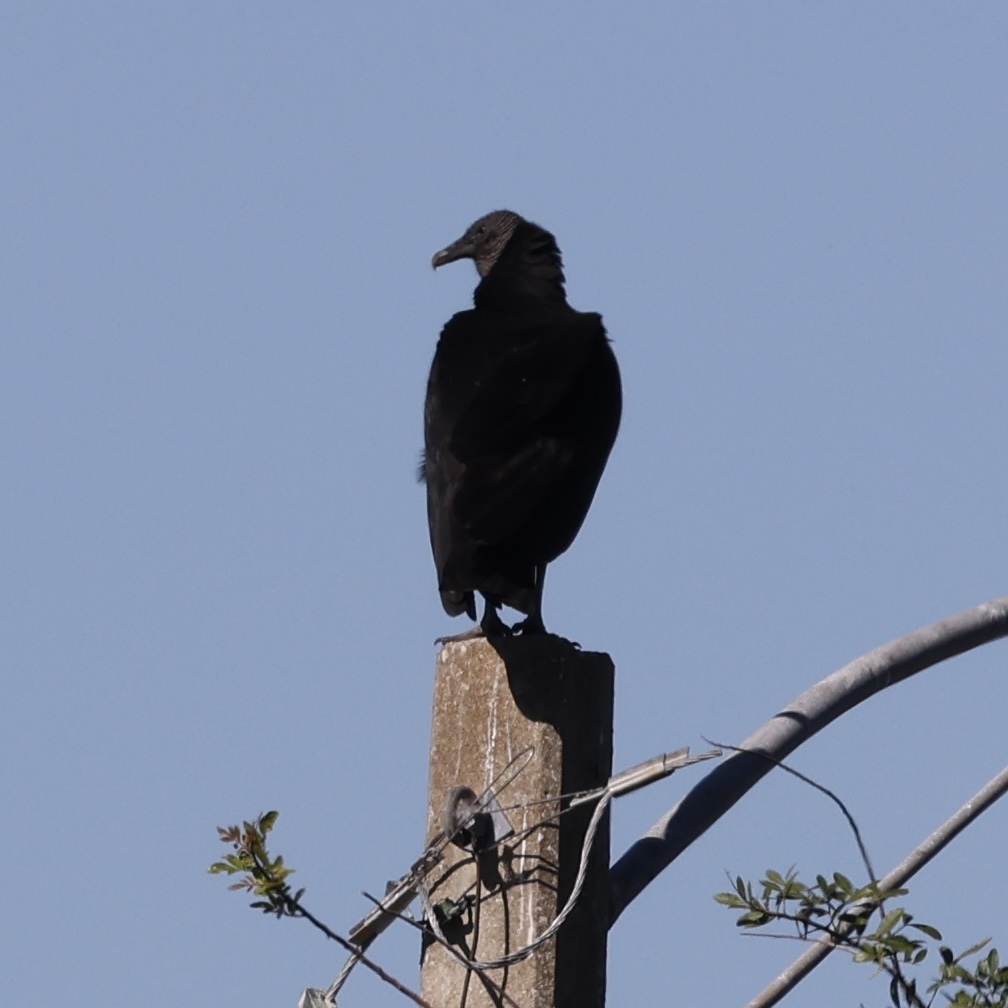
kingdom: Animalia
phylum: Chordata
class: Aves
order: Accipitriformes
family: Cathartidae
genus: Coragyps
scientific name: Coragyps atratus
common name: Black vulture
